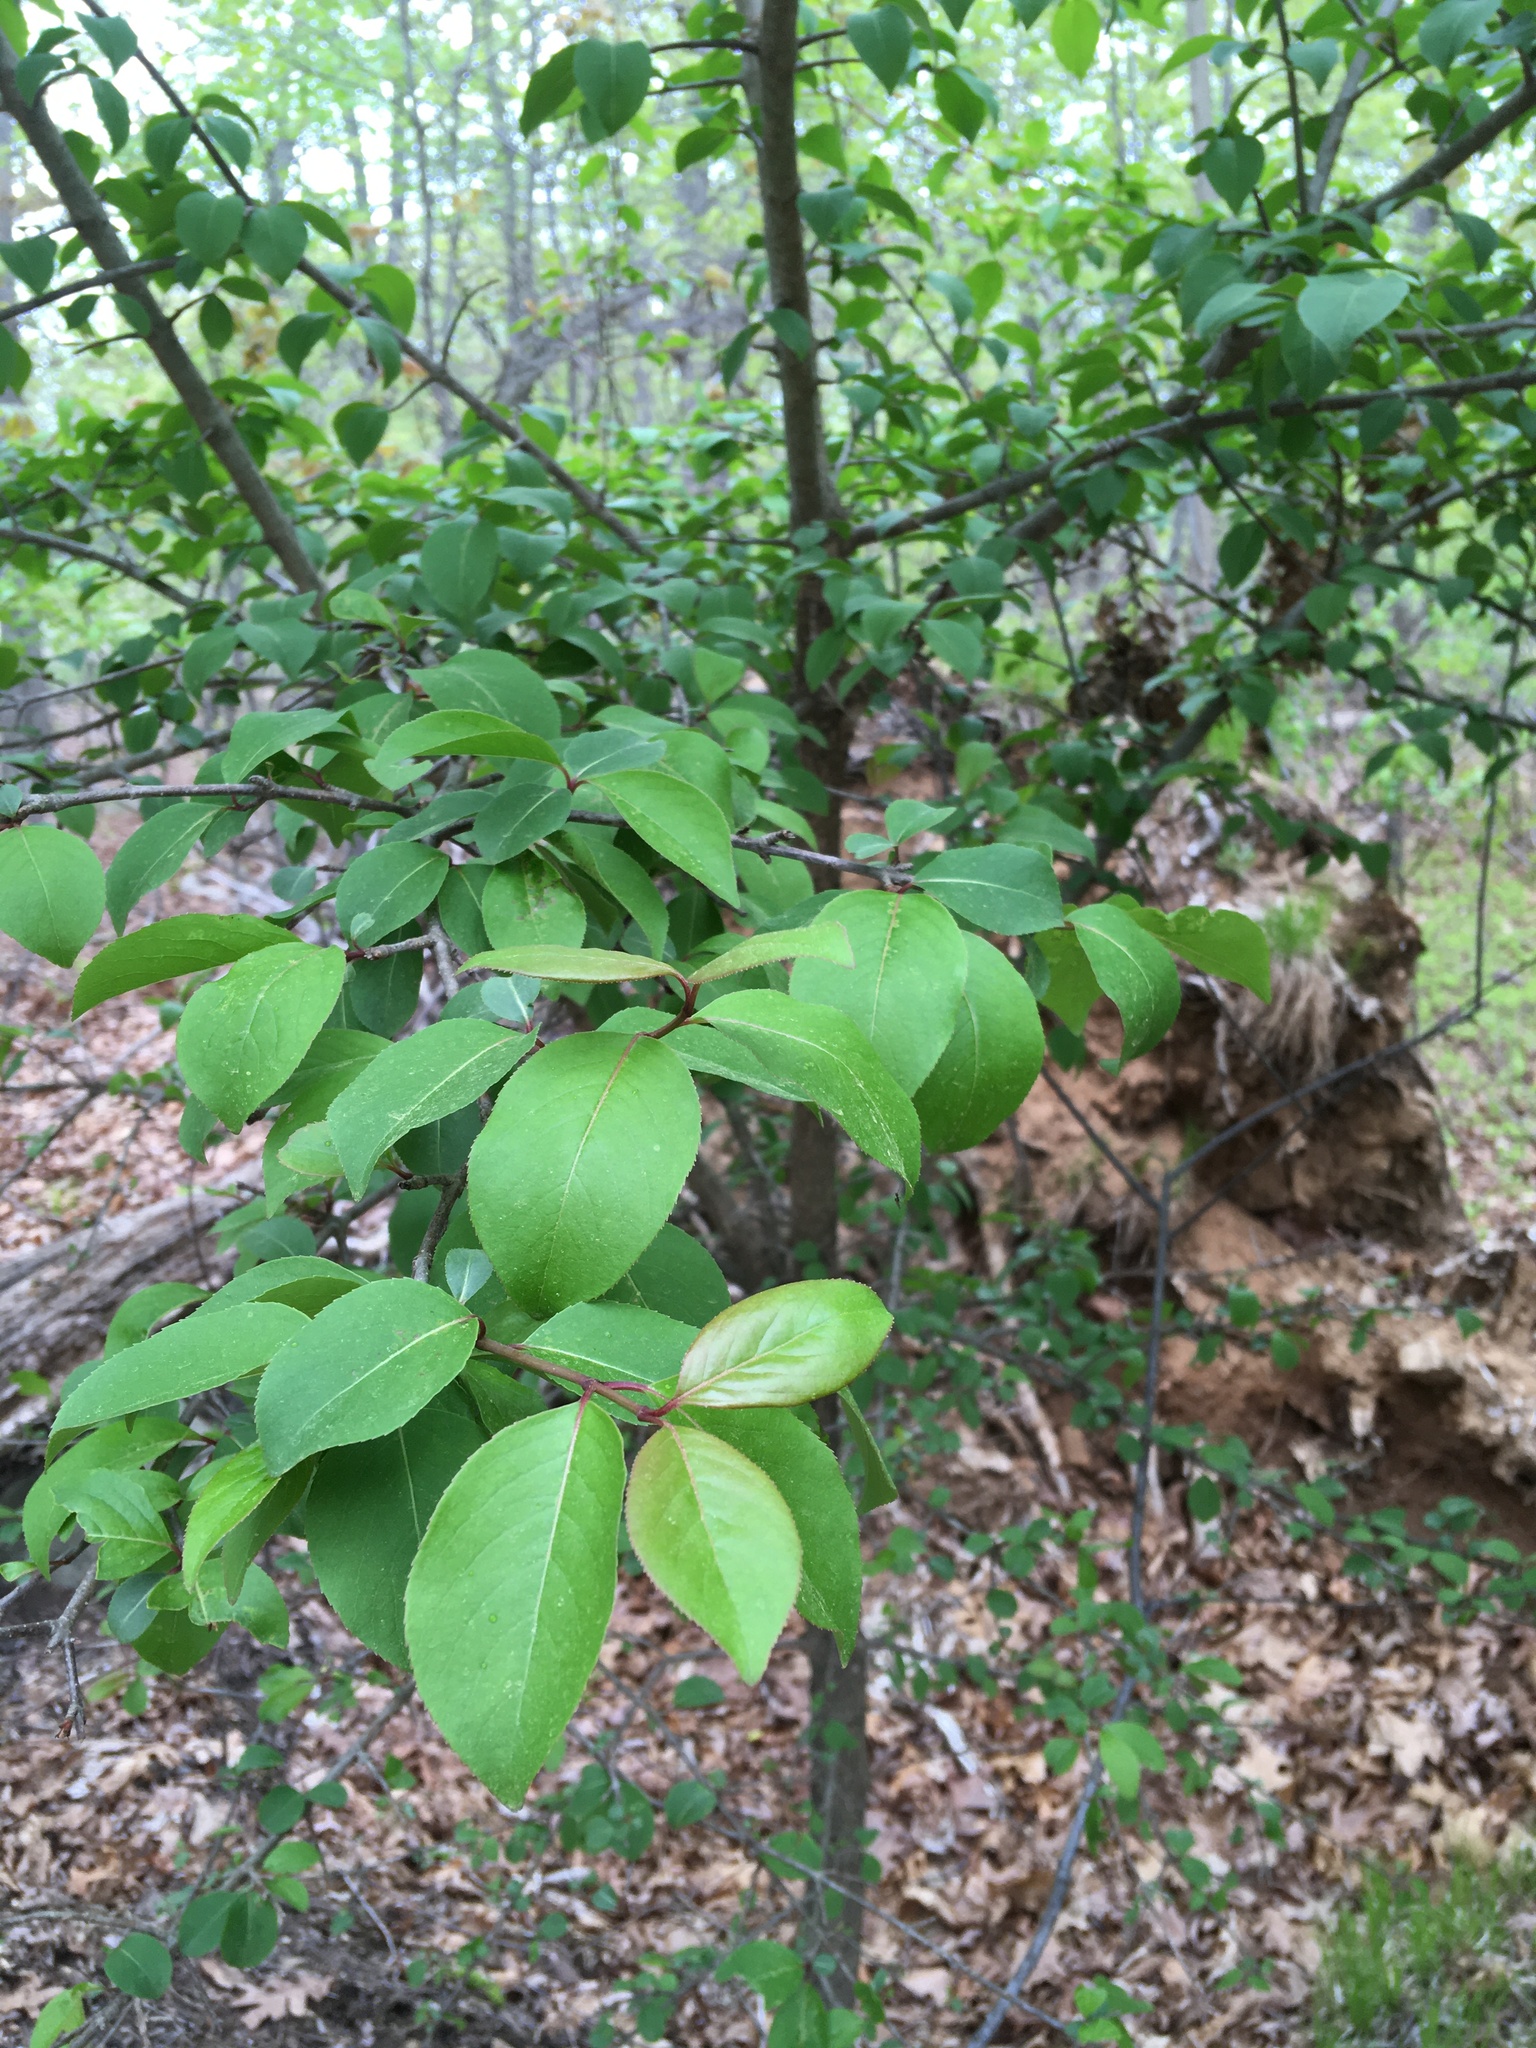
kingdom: Plantae
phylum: Tracheophyta
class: Magnoliopsida
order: Dipsacales
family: Viburnaceae
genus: Viburnum
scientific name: Viburnum prunifolium
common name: Black haw
